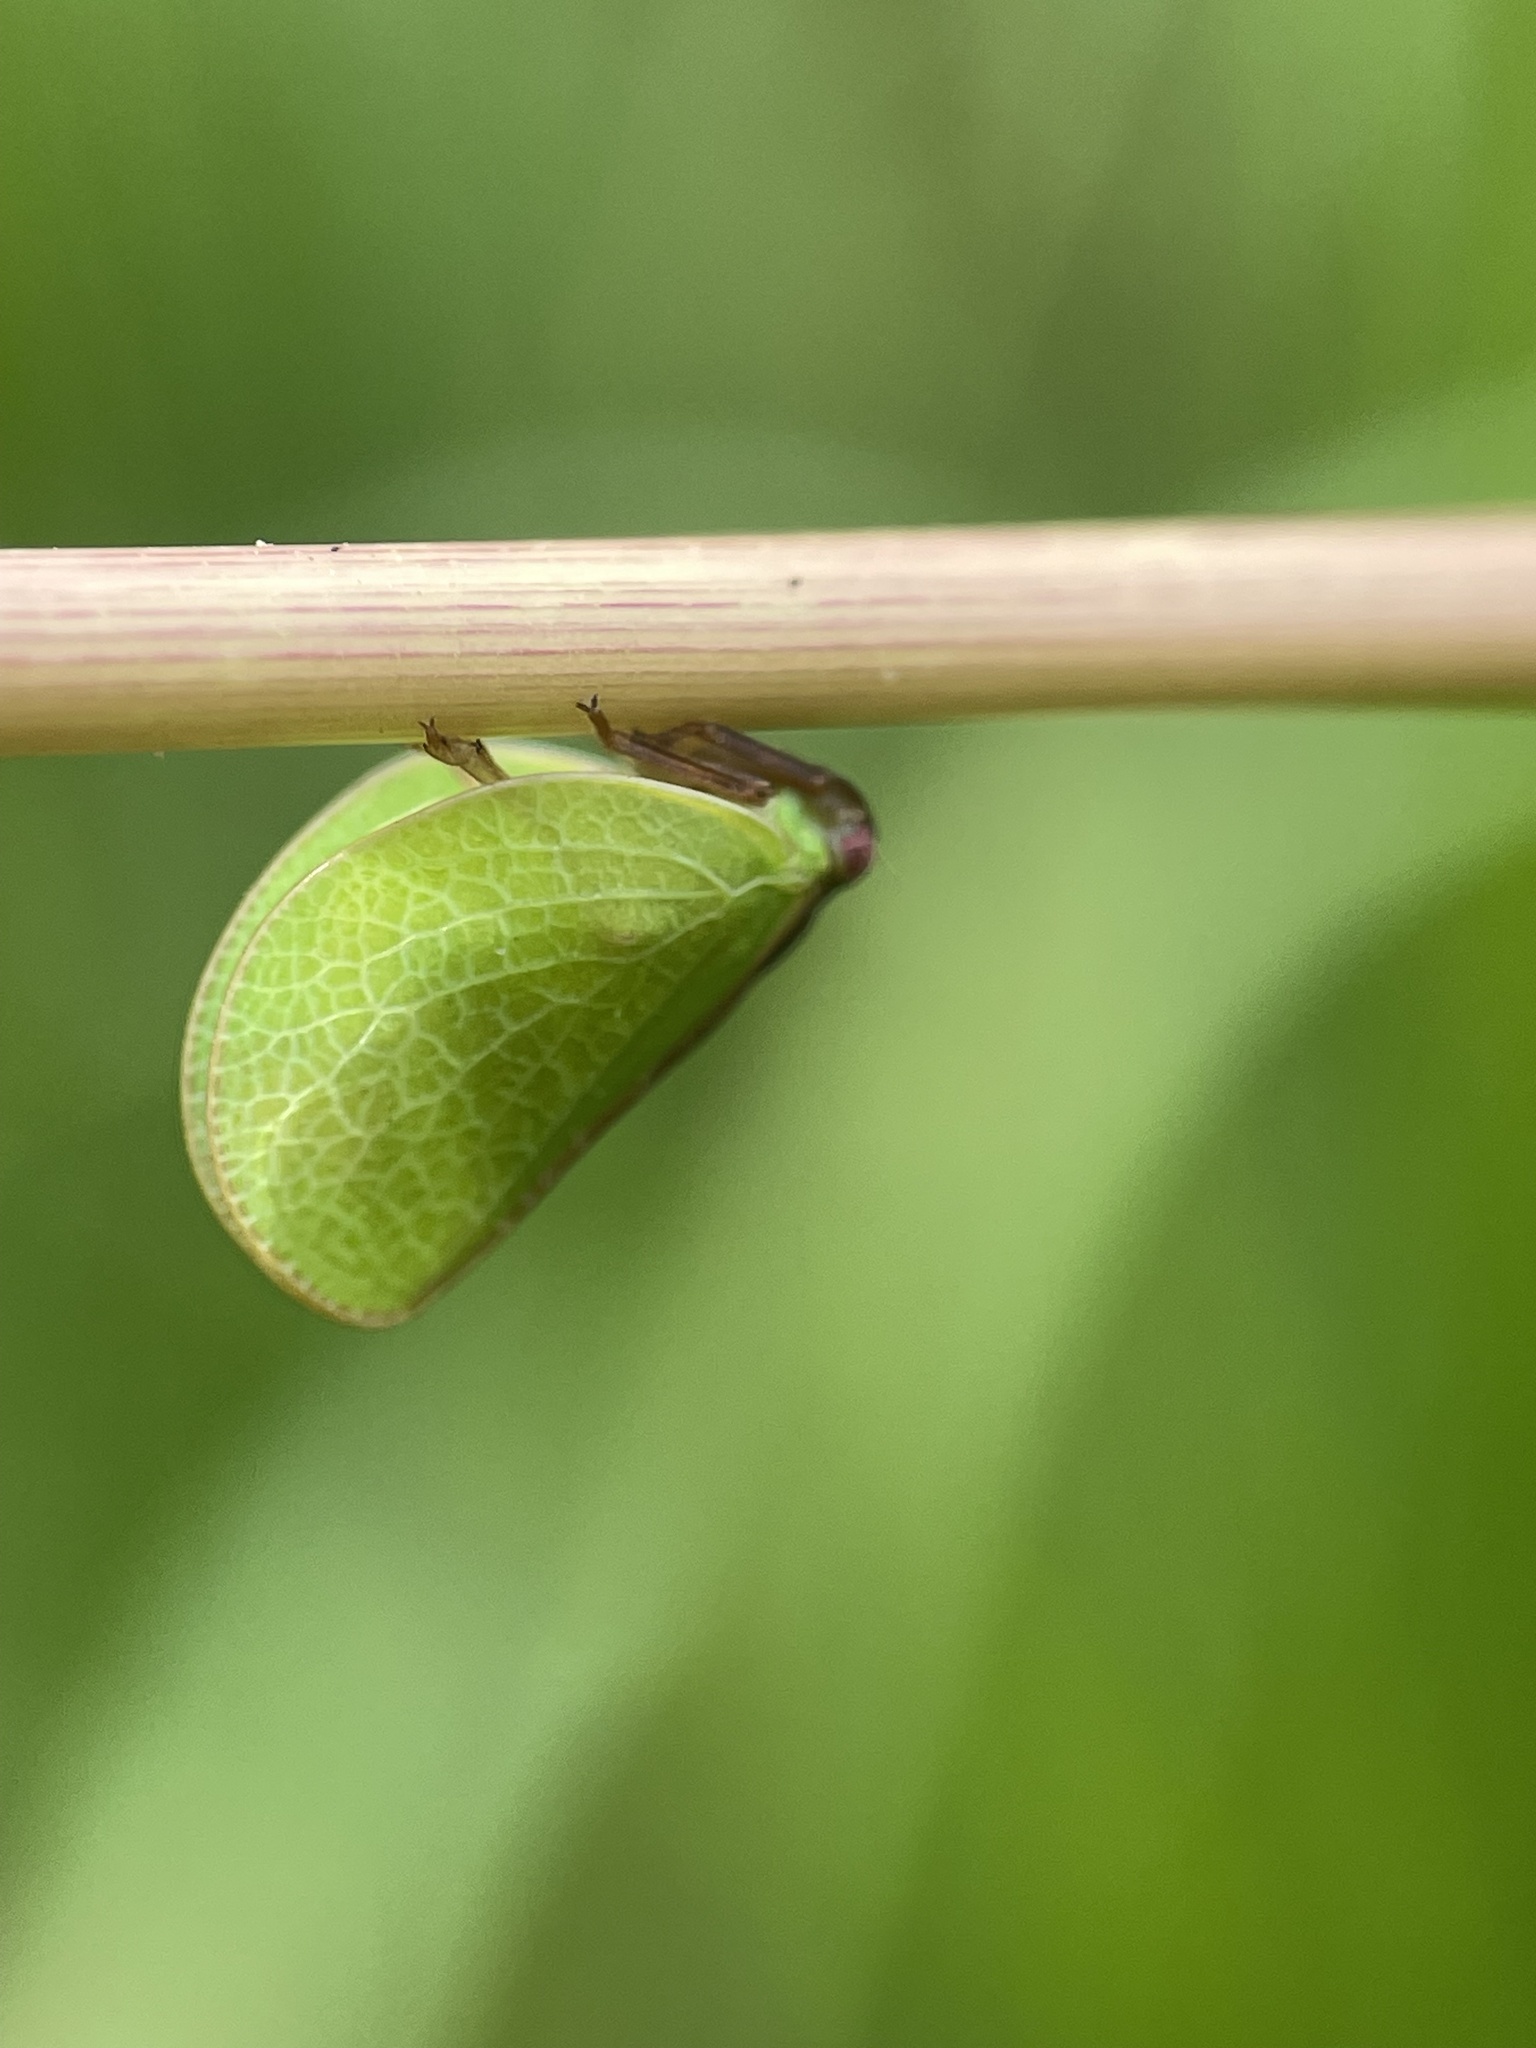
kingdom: Animalia
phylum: Arthropoda
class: Insecta
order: Hemiptera
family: Acanaloniidae
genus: Acanalonia
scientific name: Acanalonia bivittata
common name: Two-striped planthopper
